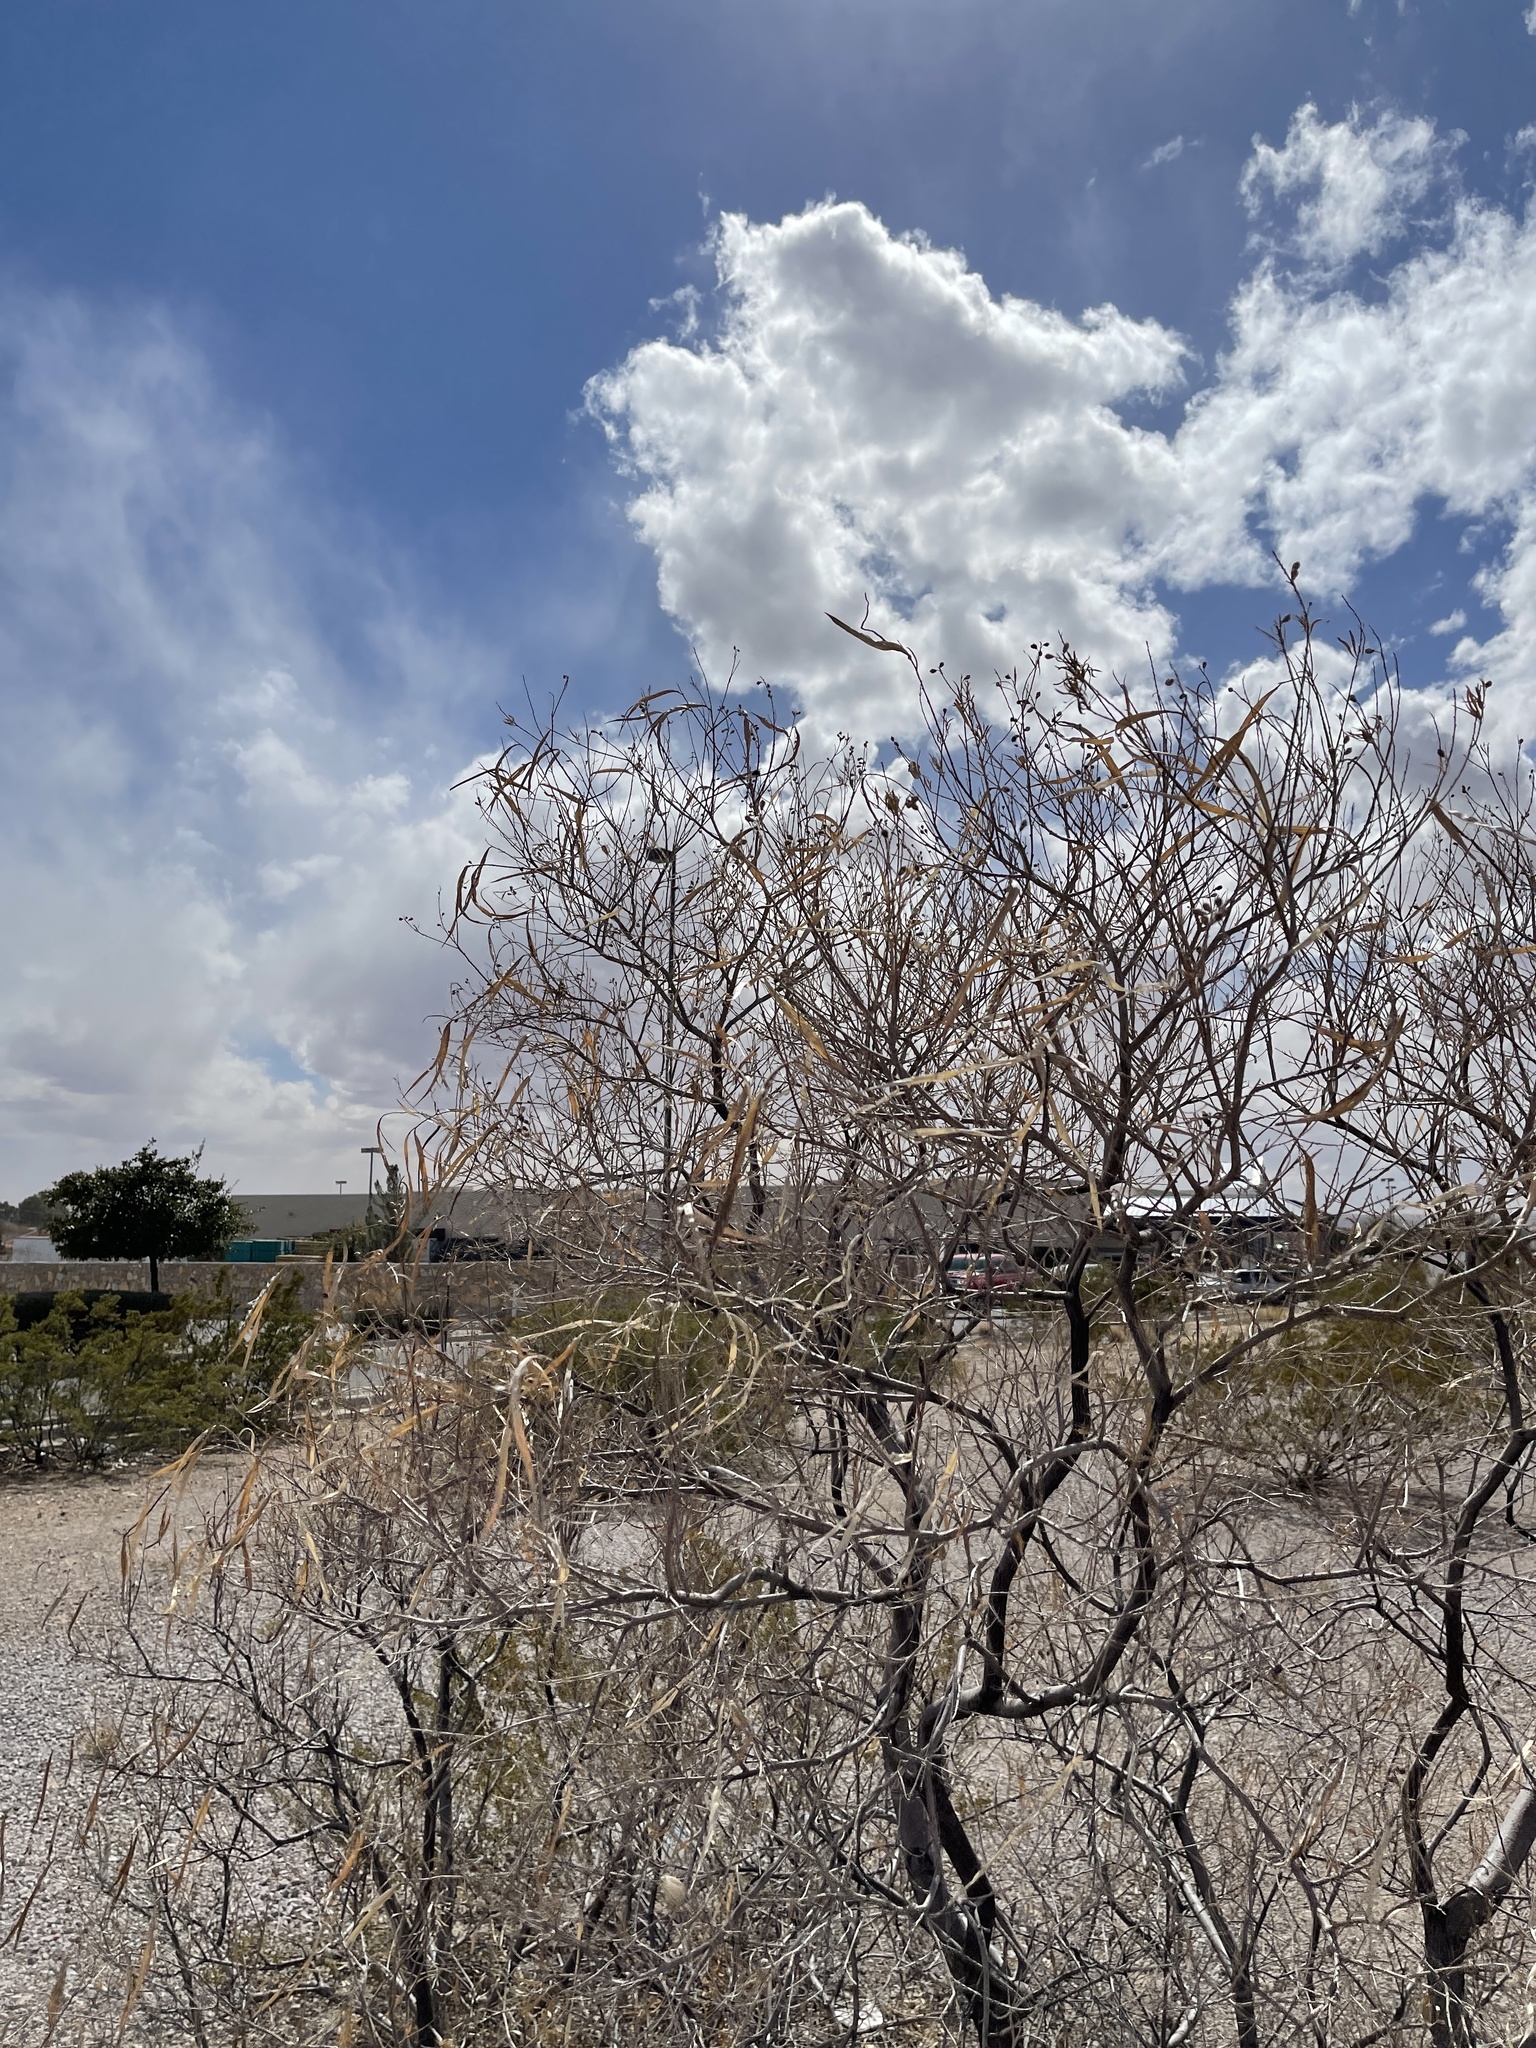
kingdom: Plantae
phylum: Tracheophyta
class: Magnoliopsida
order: Lamiales
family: Bignoniaceae
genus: Chilopsis
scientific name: Chilopsis linearis
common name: Desert-willow
